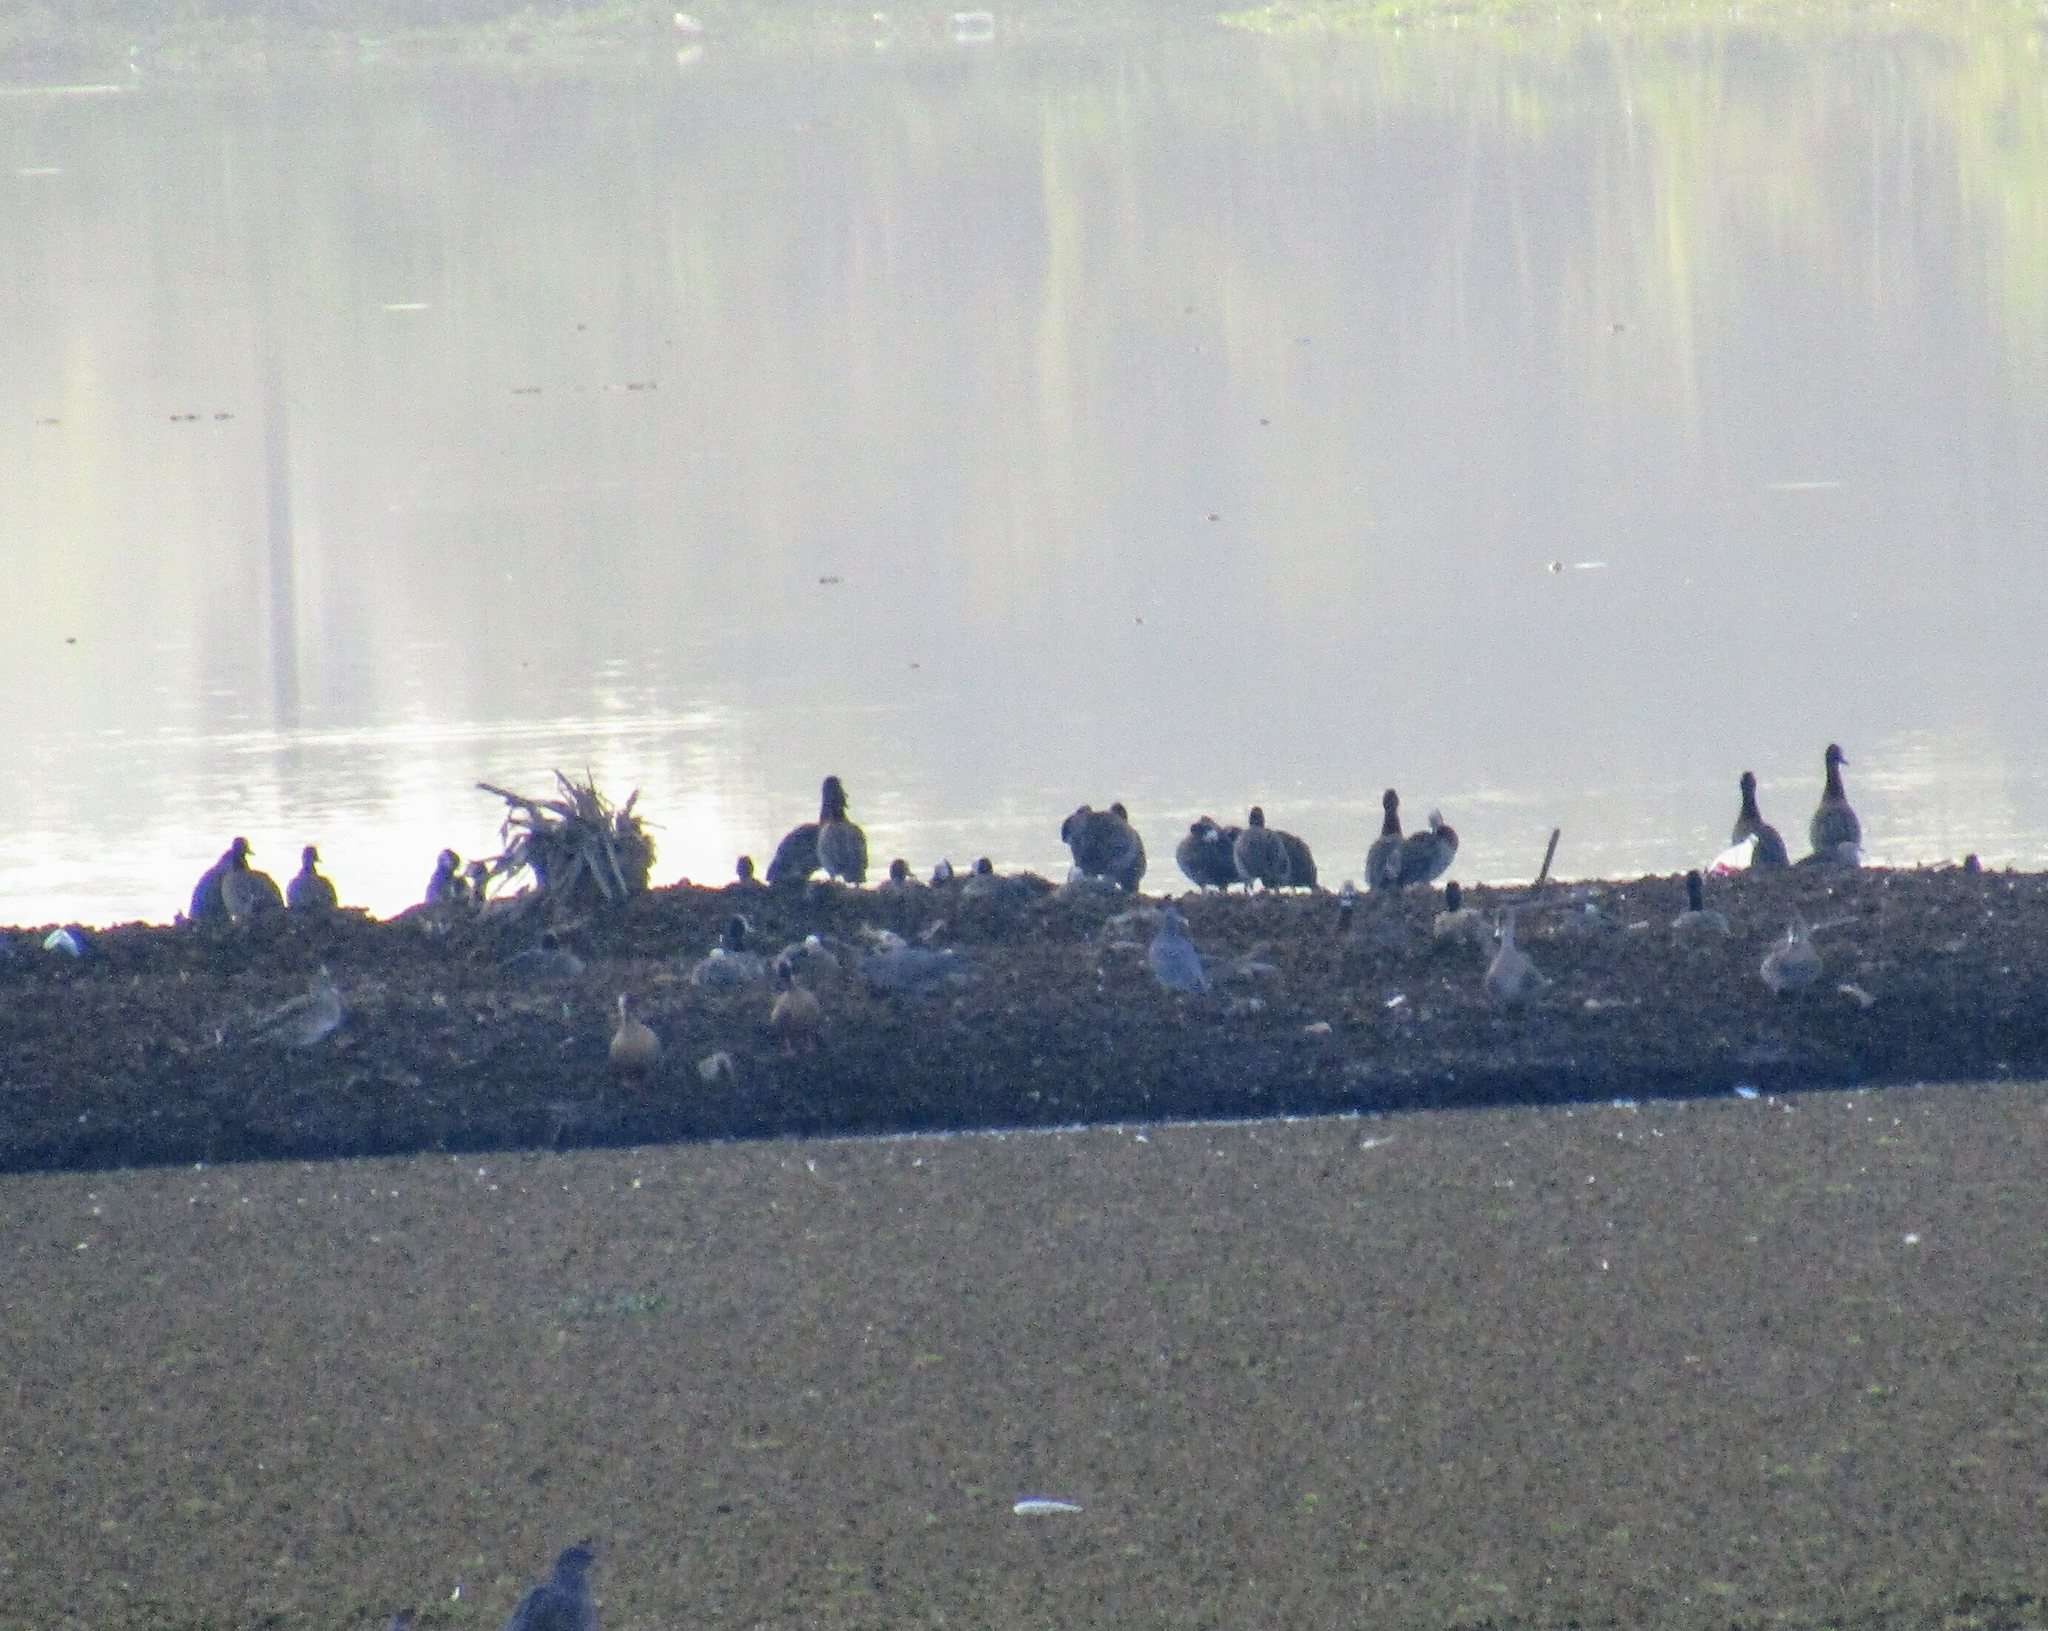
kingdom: Animalia
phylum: Chordata
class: Aves
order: Anseriformes
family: Anatidae
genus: Dendrocygna
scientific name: Dendrocygna viduata
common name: White-faced whistling duck
